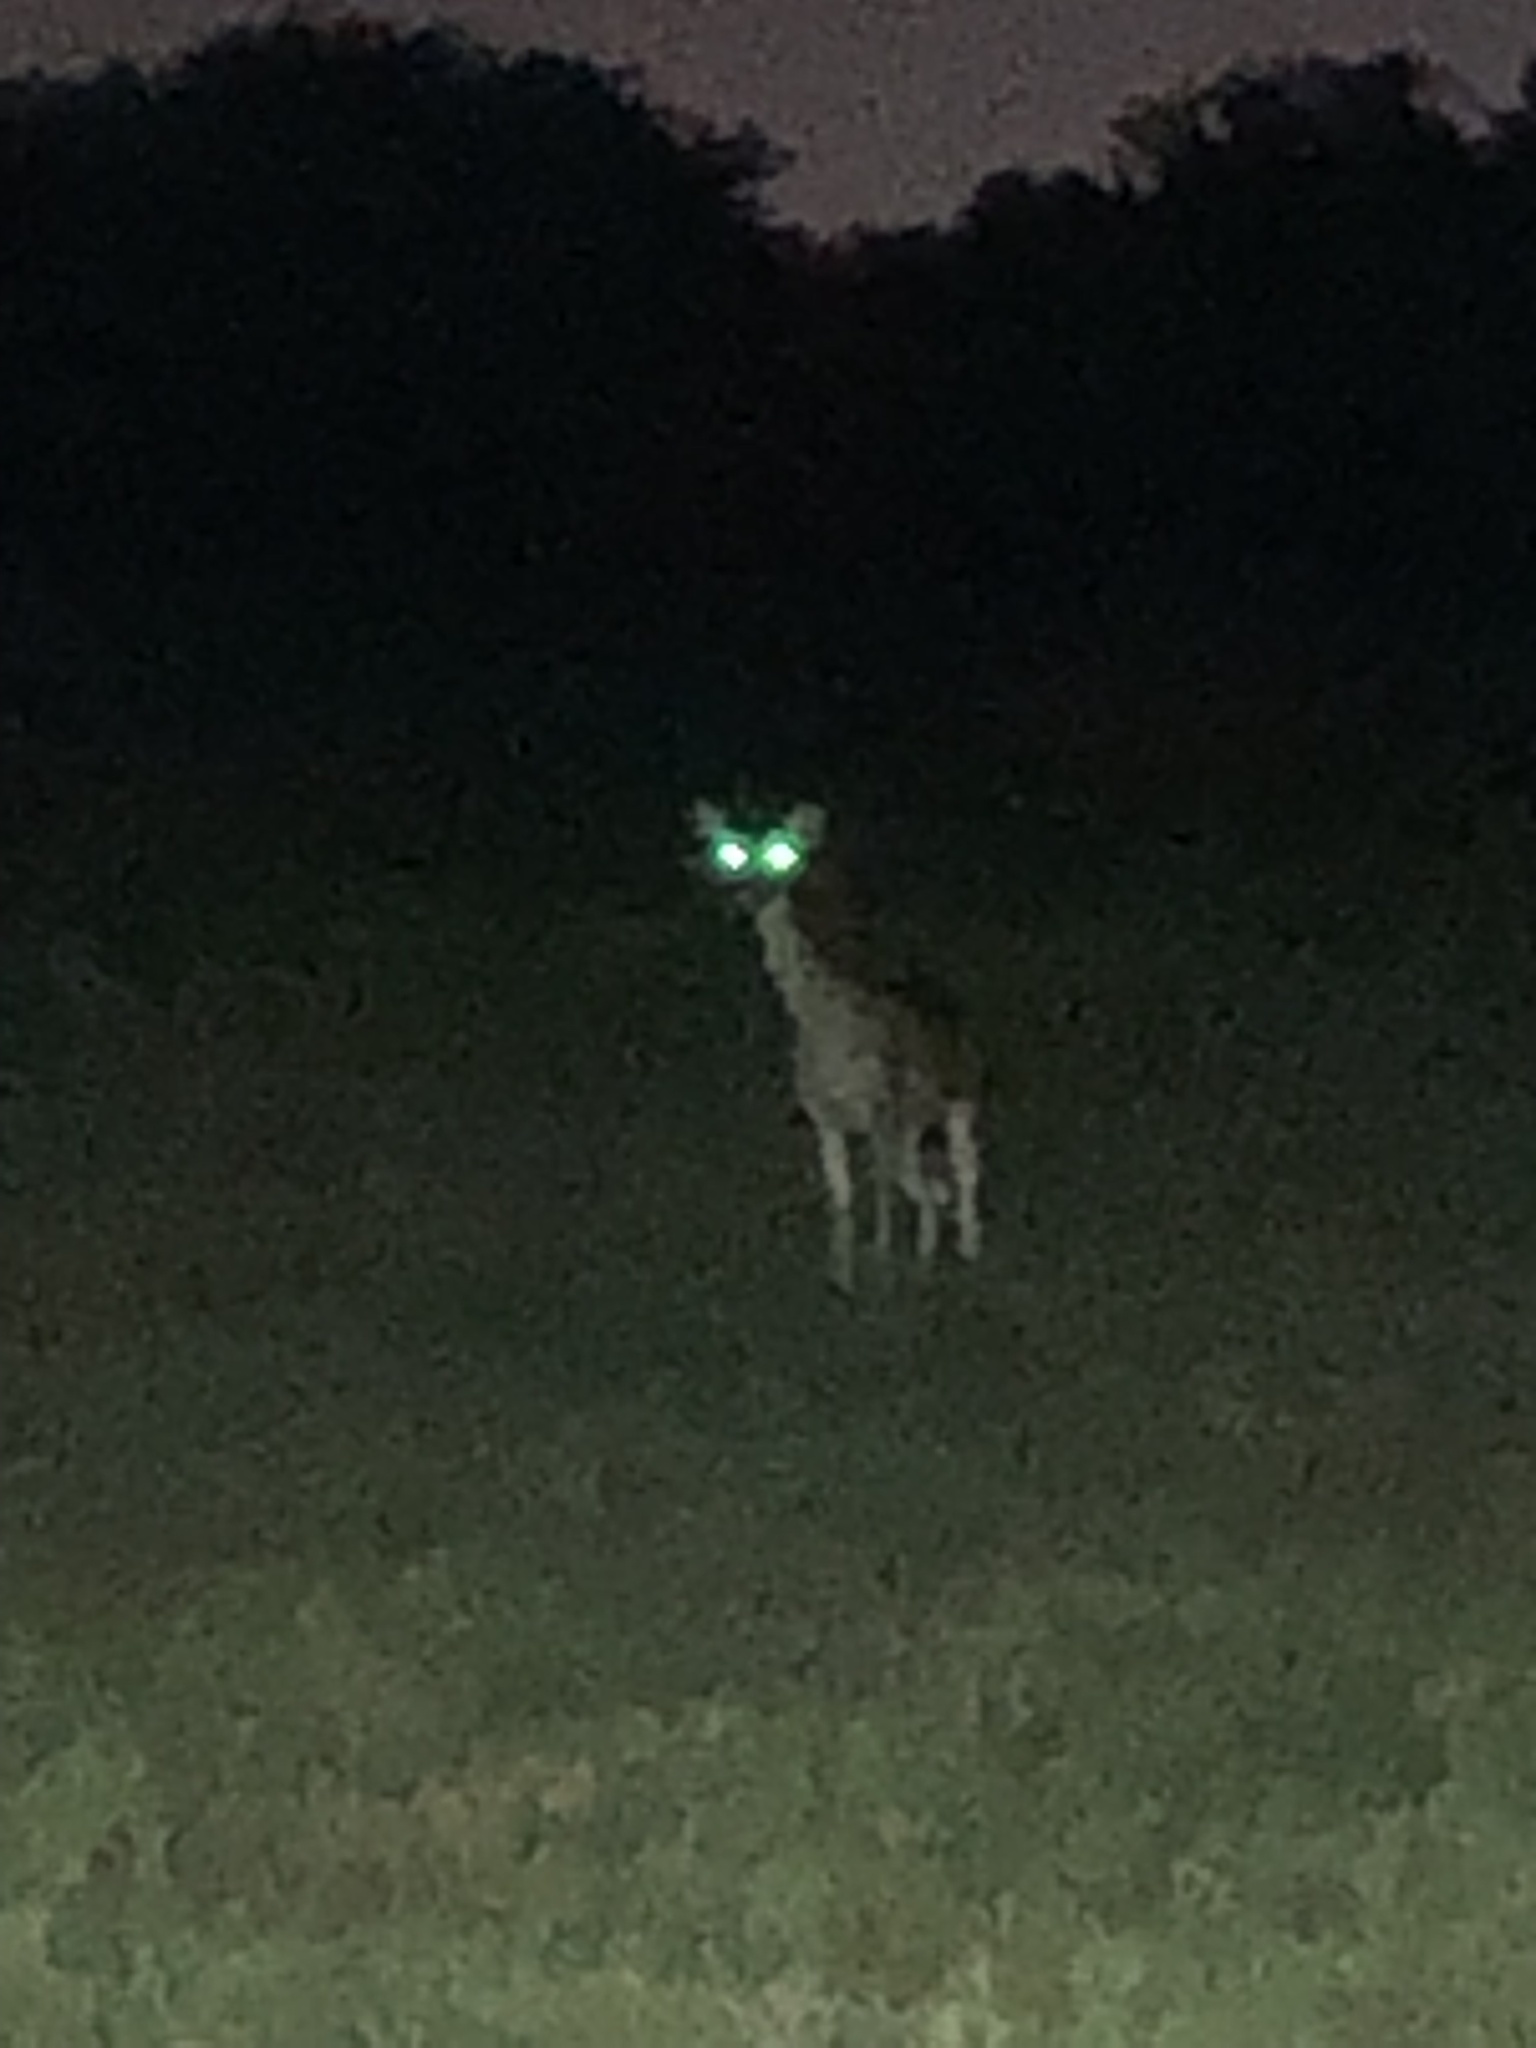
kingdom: Animalia
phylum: Chordata
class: Mammalia
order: Artiodactyla
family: Cervidae
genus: Odocoileus
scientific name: Odocoileus virginianus
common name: White-tailed deer
